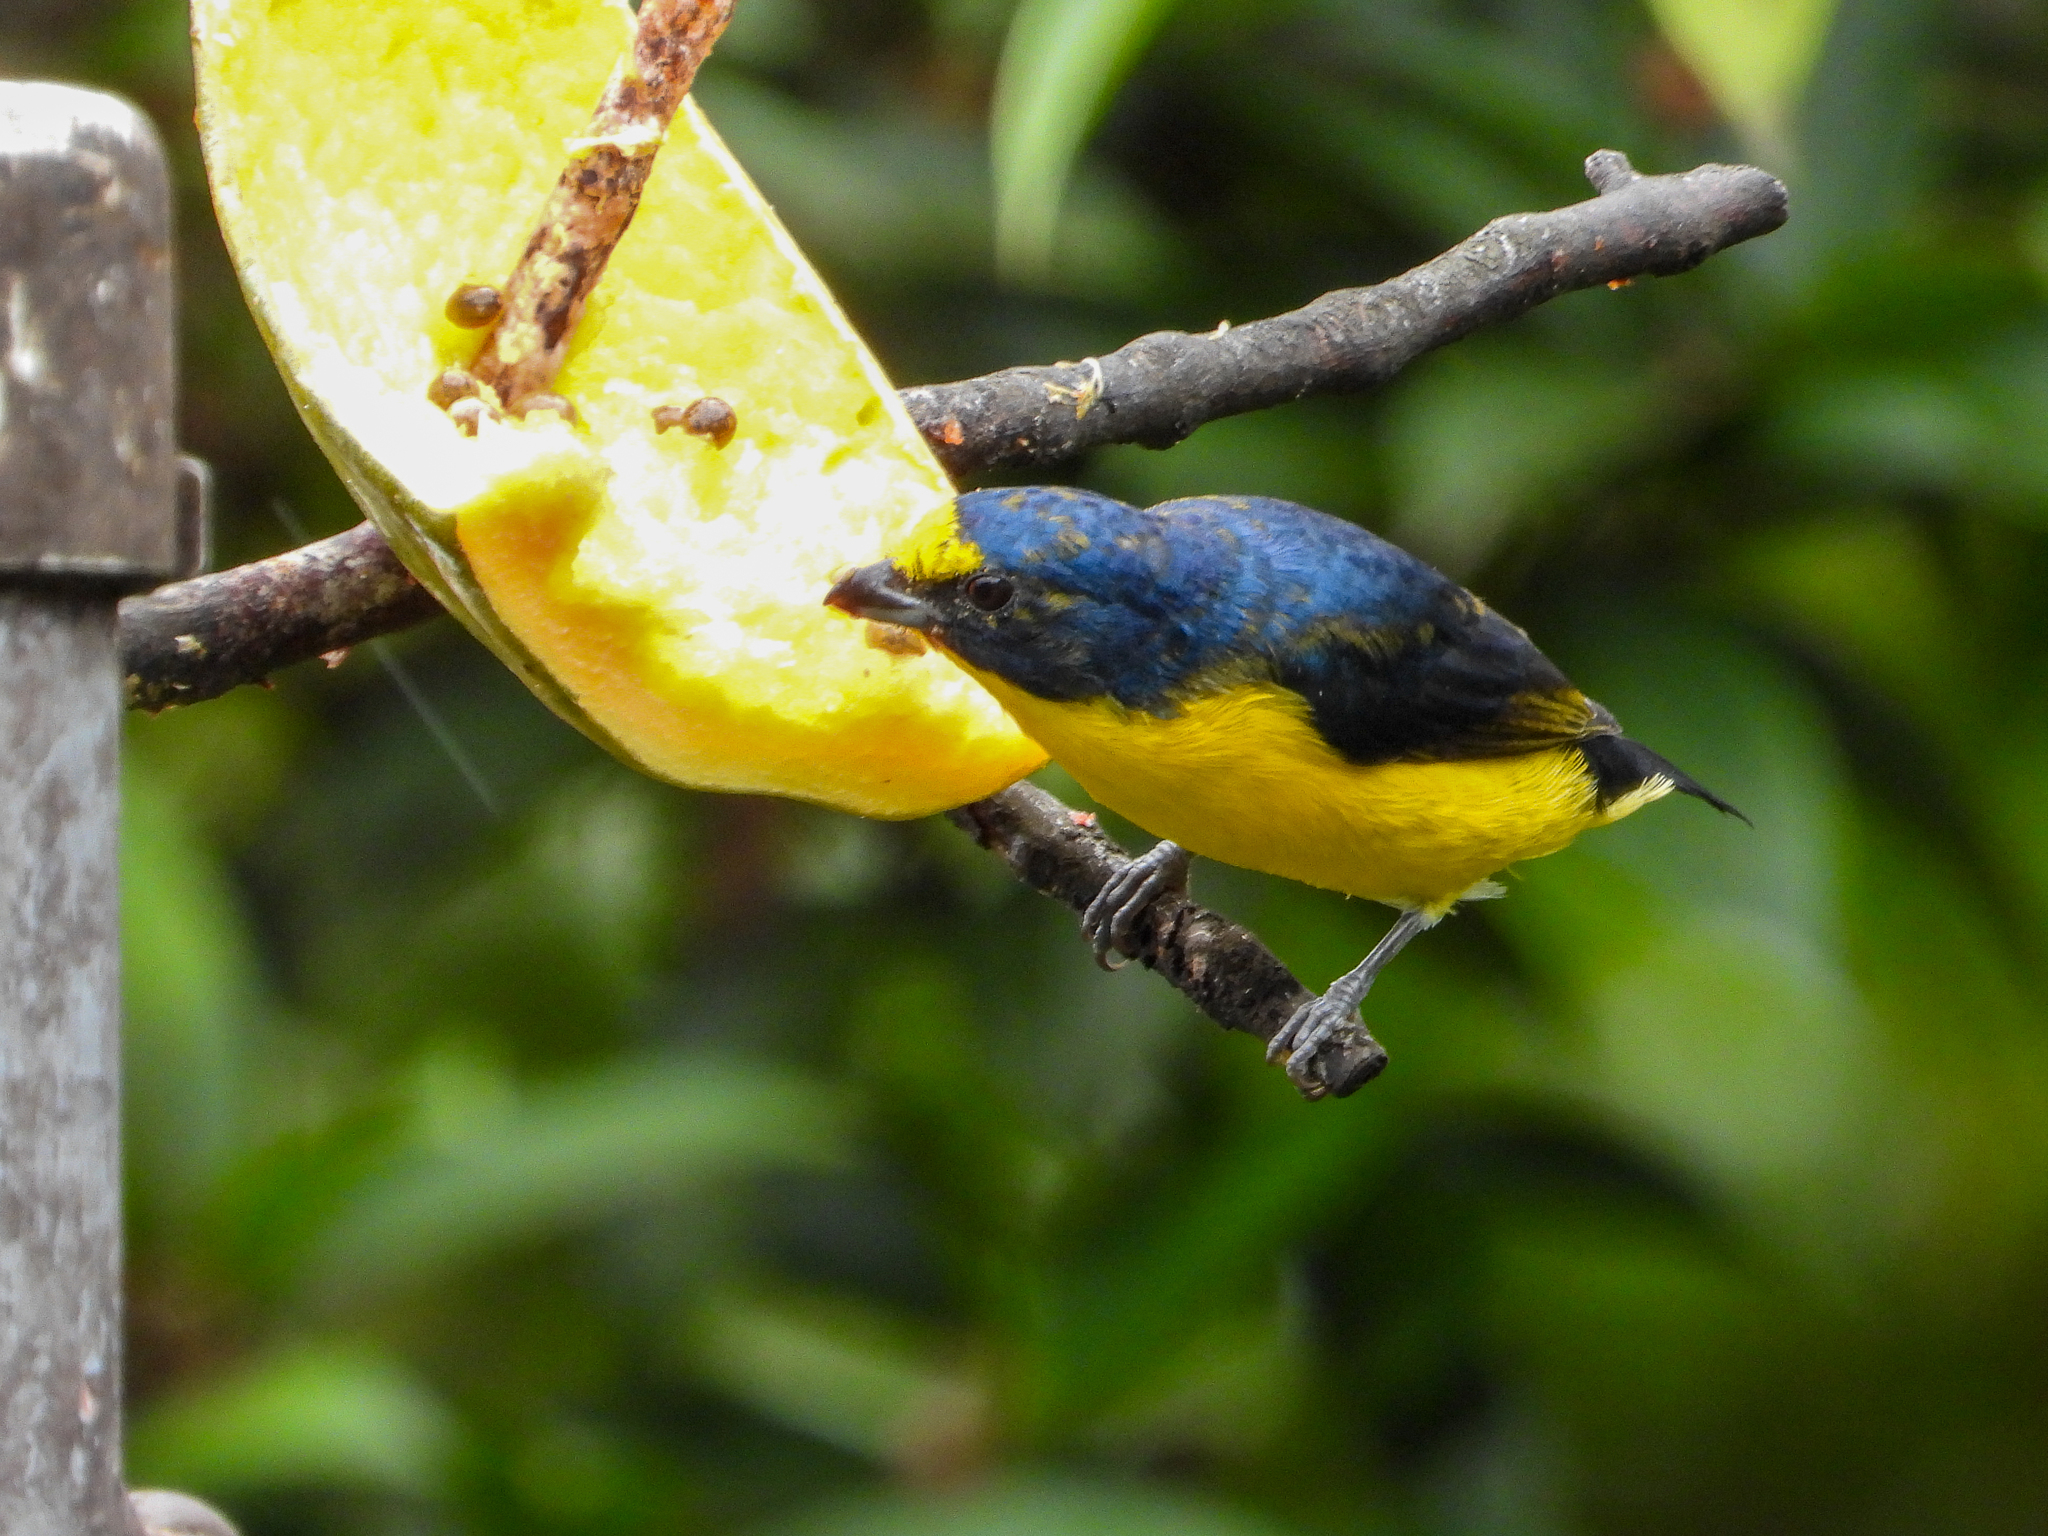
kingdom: Animalia
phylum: Chordata
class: Aves
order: Passeriformes
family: Fringillidae
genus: Euphonia
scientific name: Euphonia hirundinacea
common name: Yellow-throated euphonia
